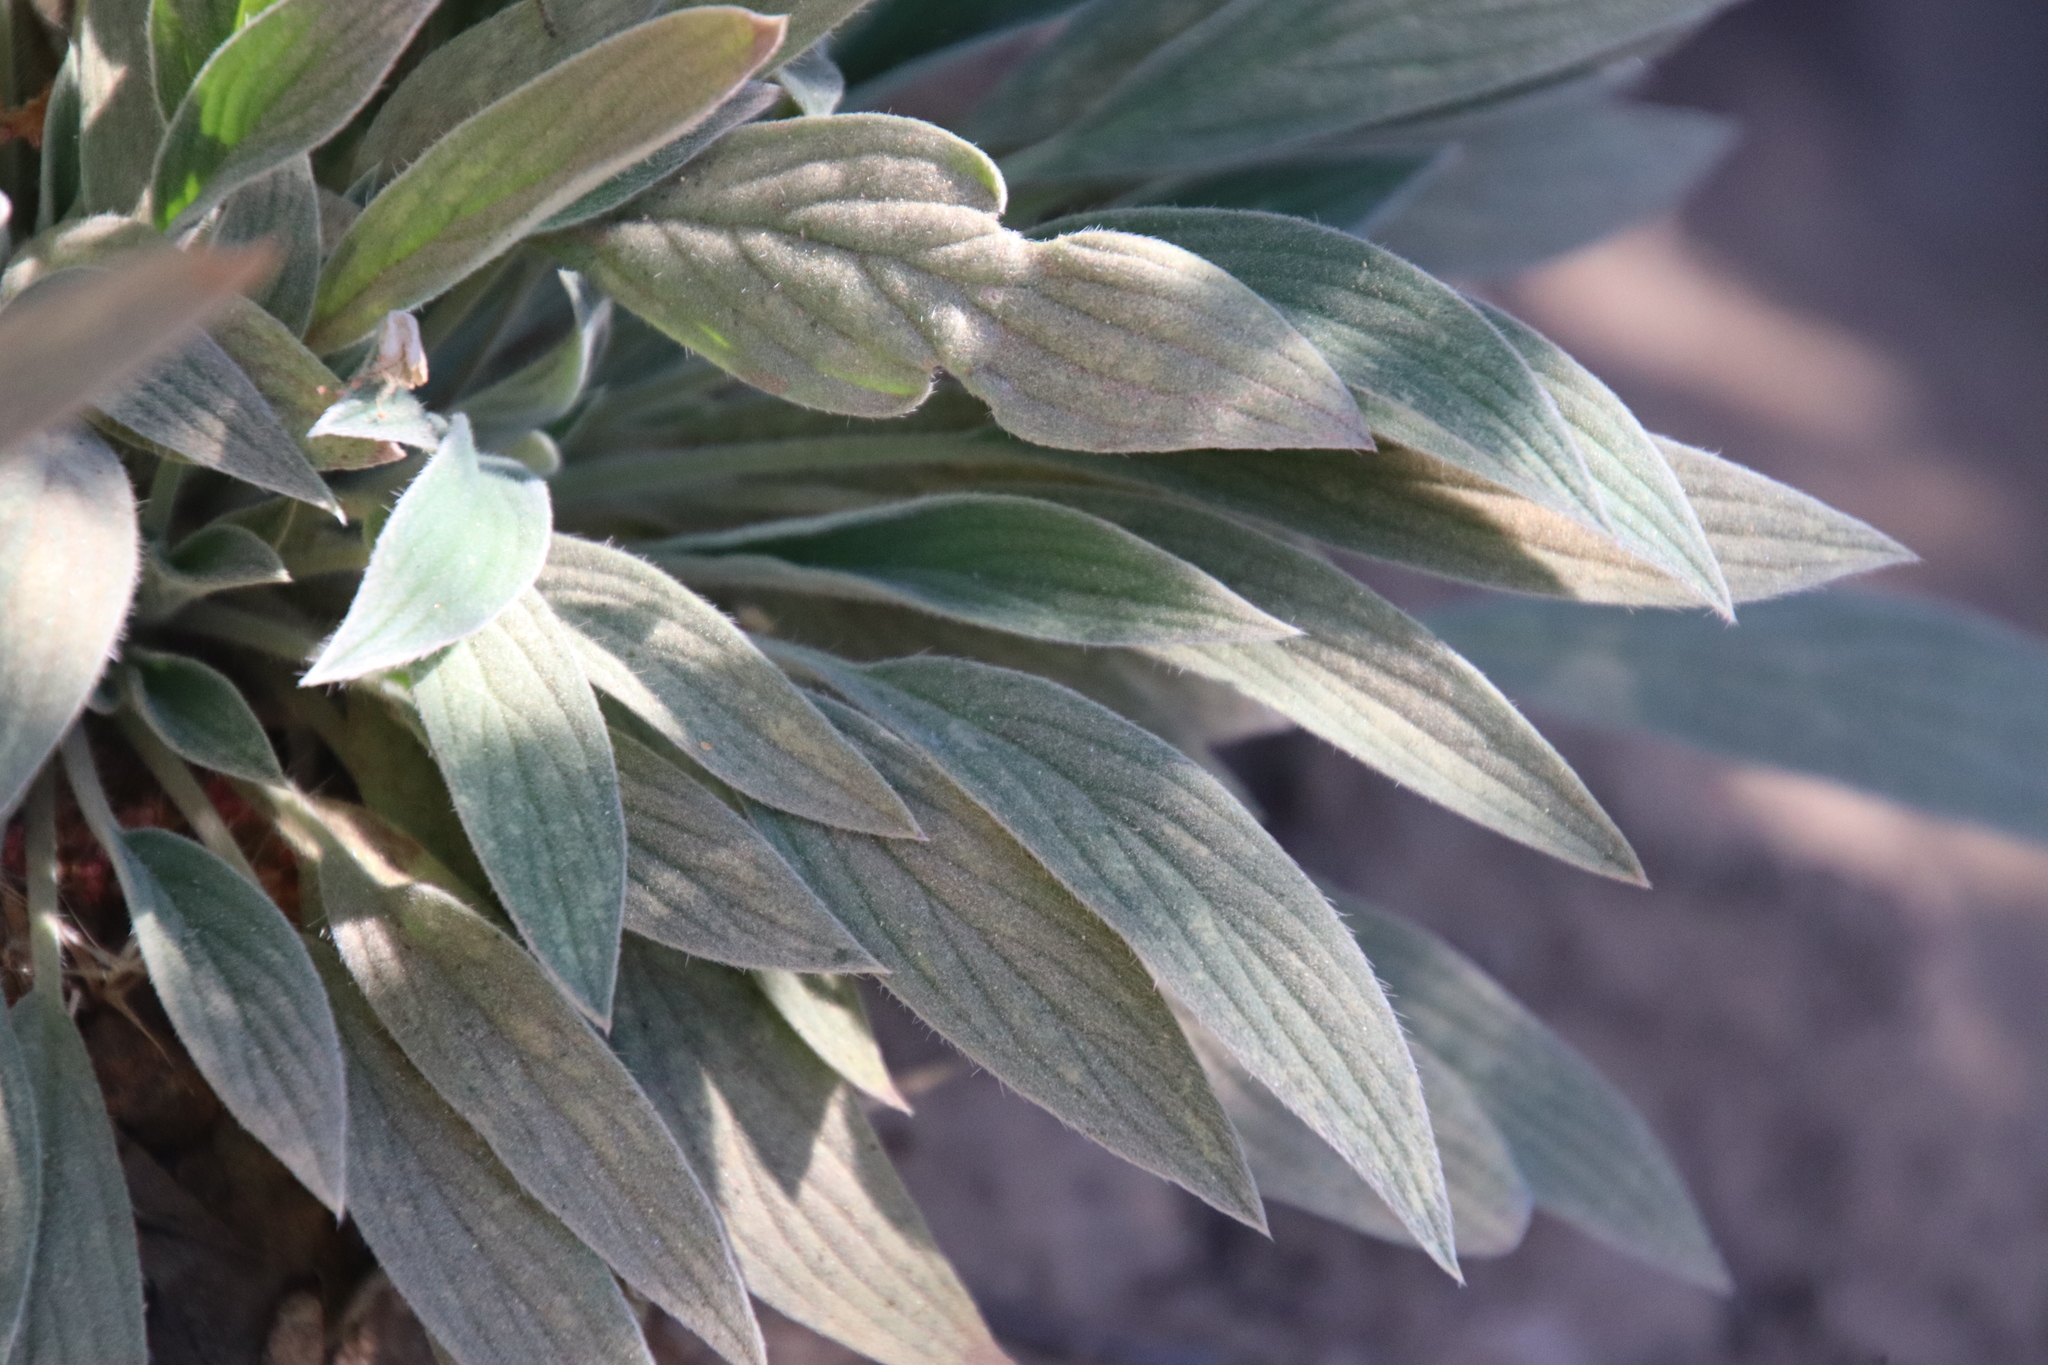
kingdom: Plantae
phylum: Tracheophyta
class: Magnoliopsida
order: Boraginales
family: Hydrophyllaceae
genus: Phacelia
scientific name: Phacelia imbricata
